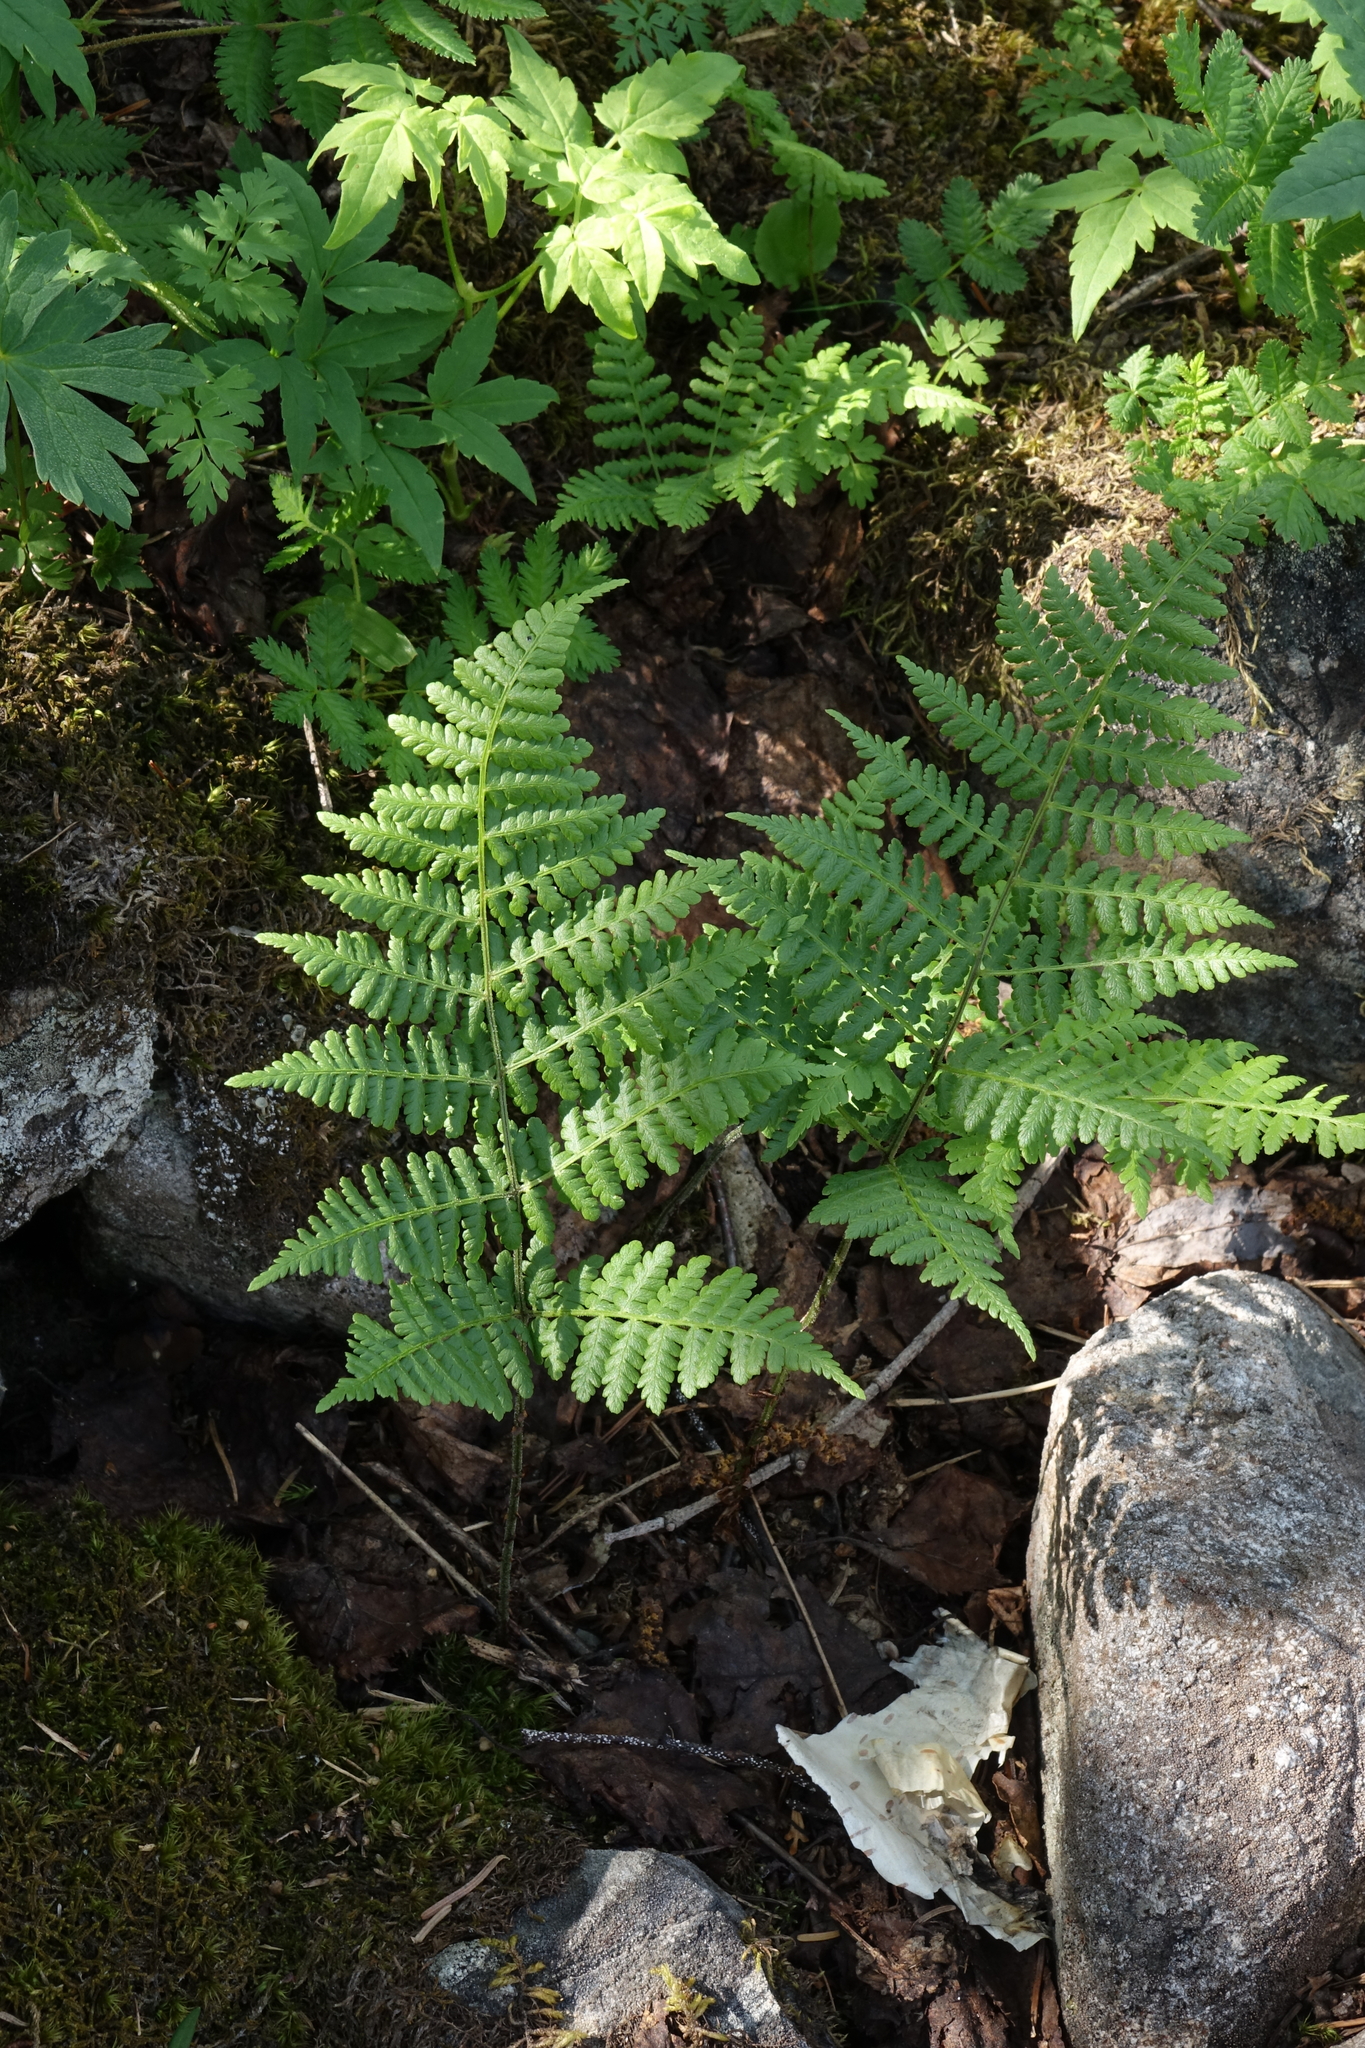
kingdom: Plantae
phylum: Tracheophyta
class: Polypodiopsida
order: Polypodiales
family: Athyriaceae
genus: Diplazium
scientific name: Diplazium sibiricum
